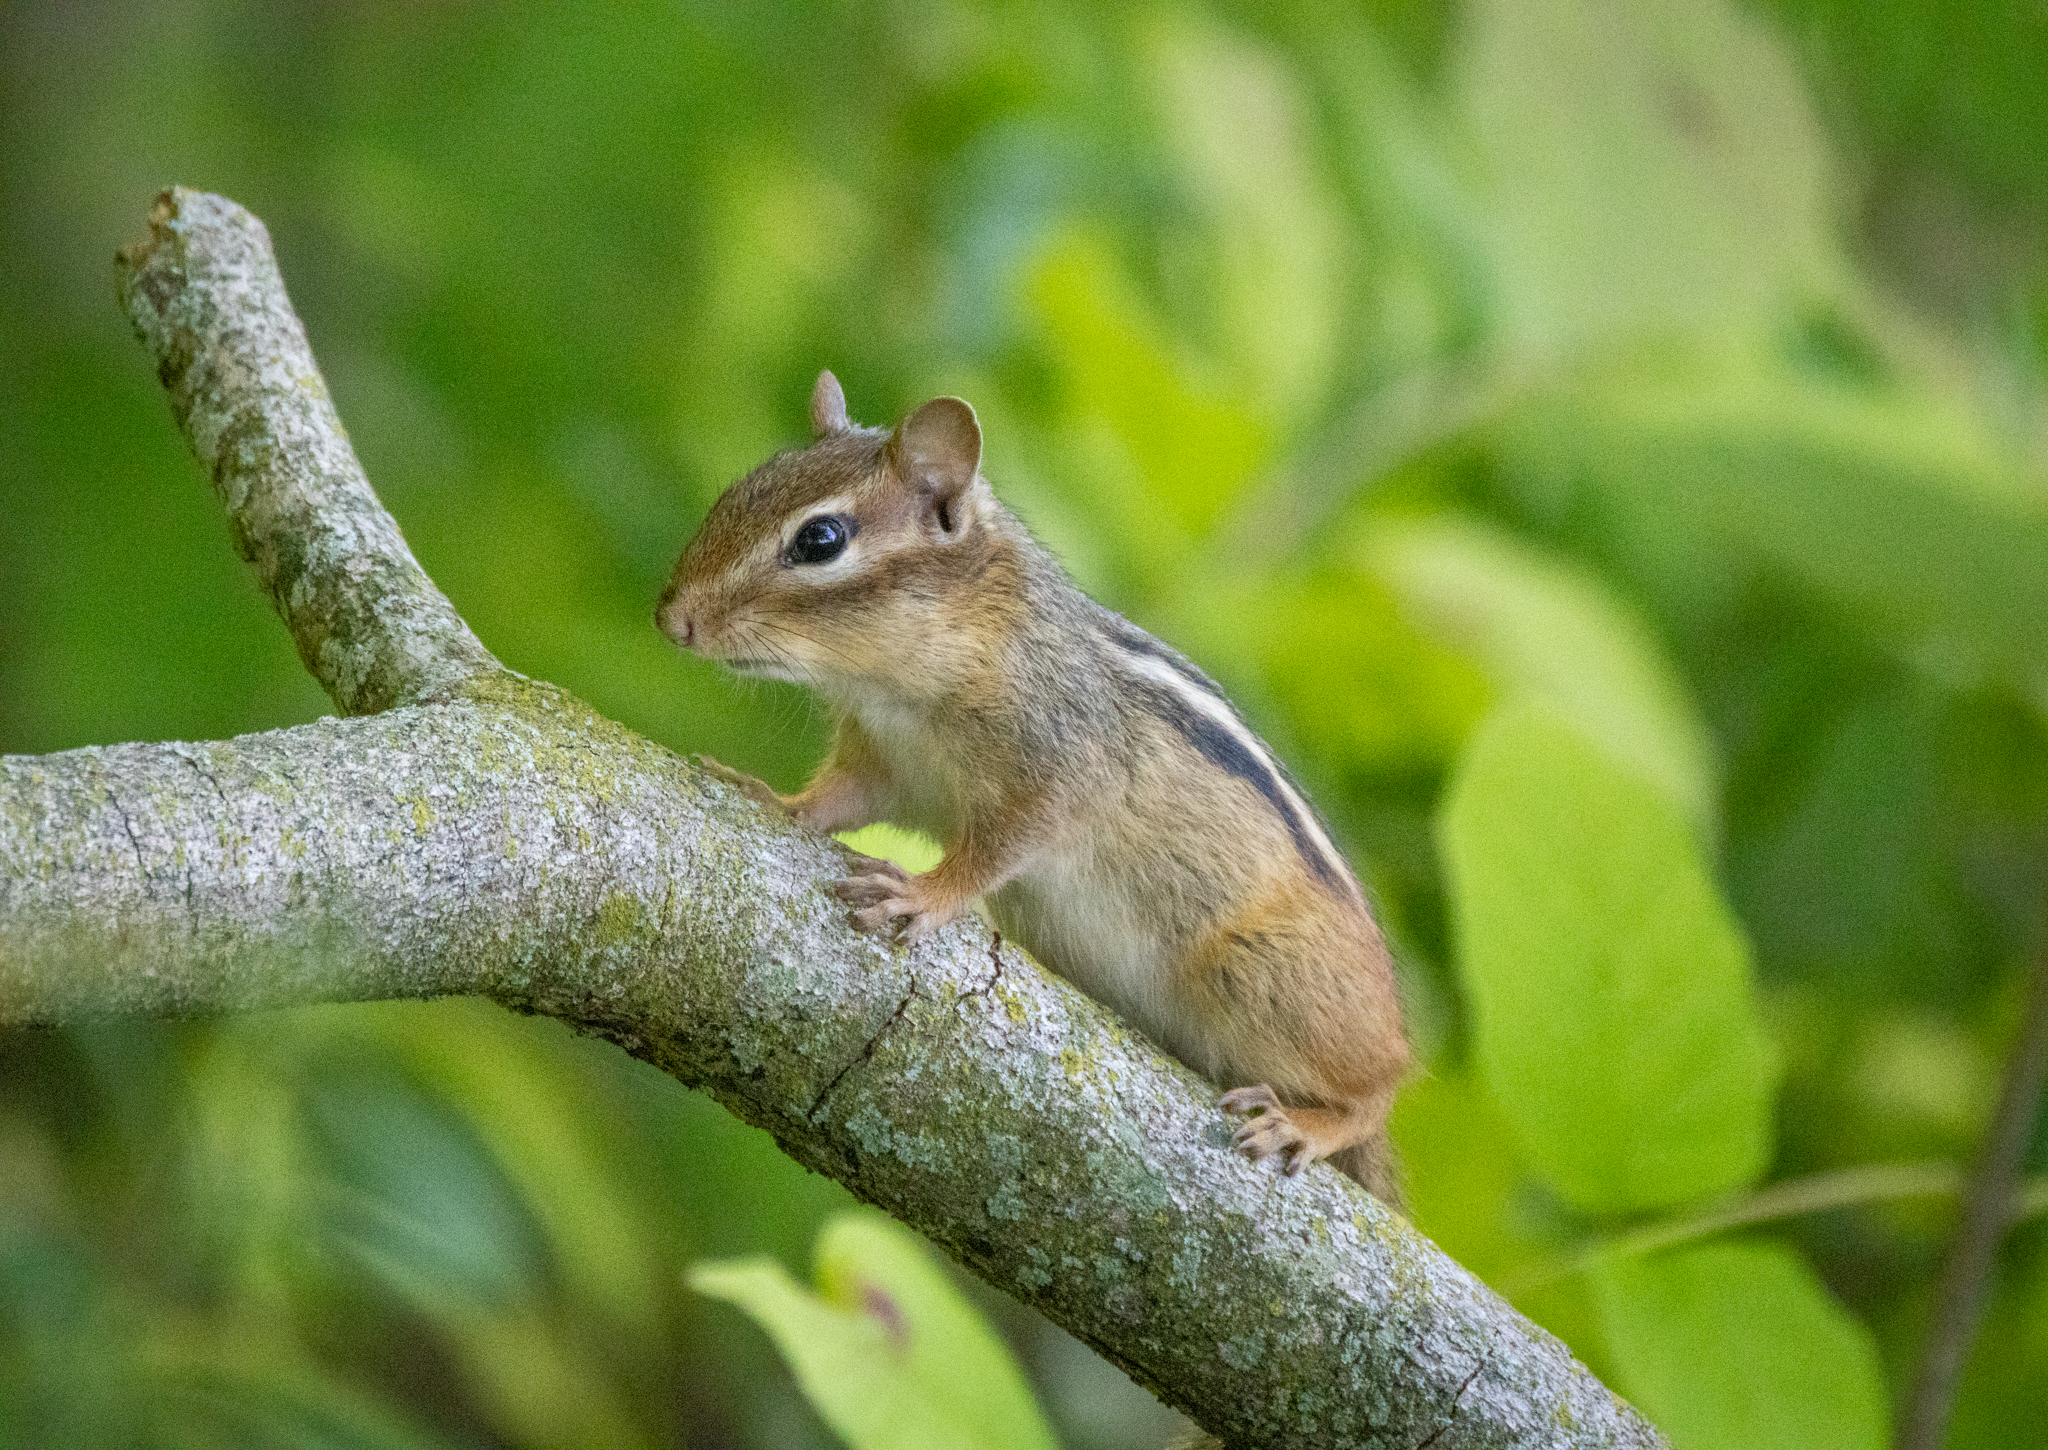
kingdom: Animalia
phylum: Chordata
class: Mammalia
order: Rodentia
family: Sciuridae
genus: Tamias
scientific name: Tamias striatus
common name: Eastern chipmunk
